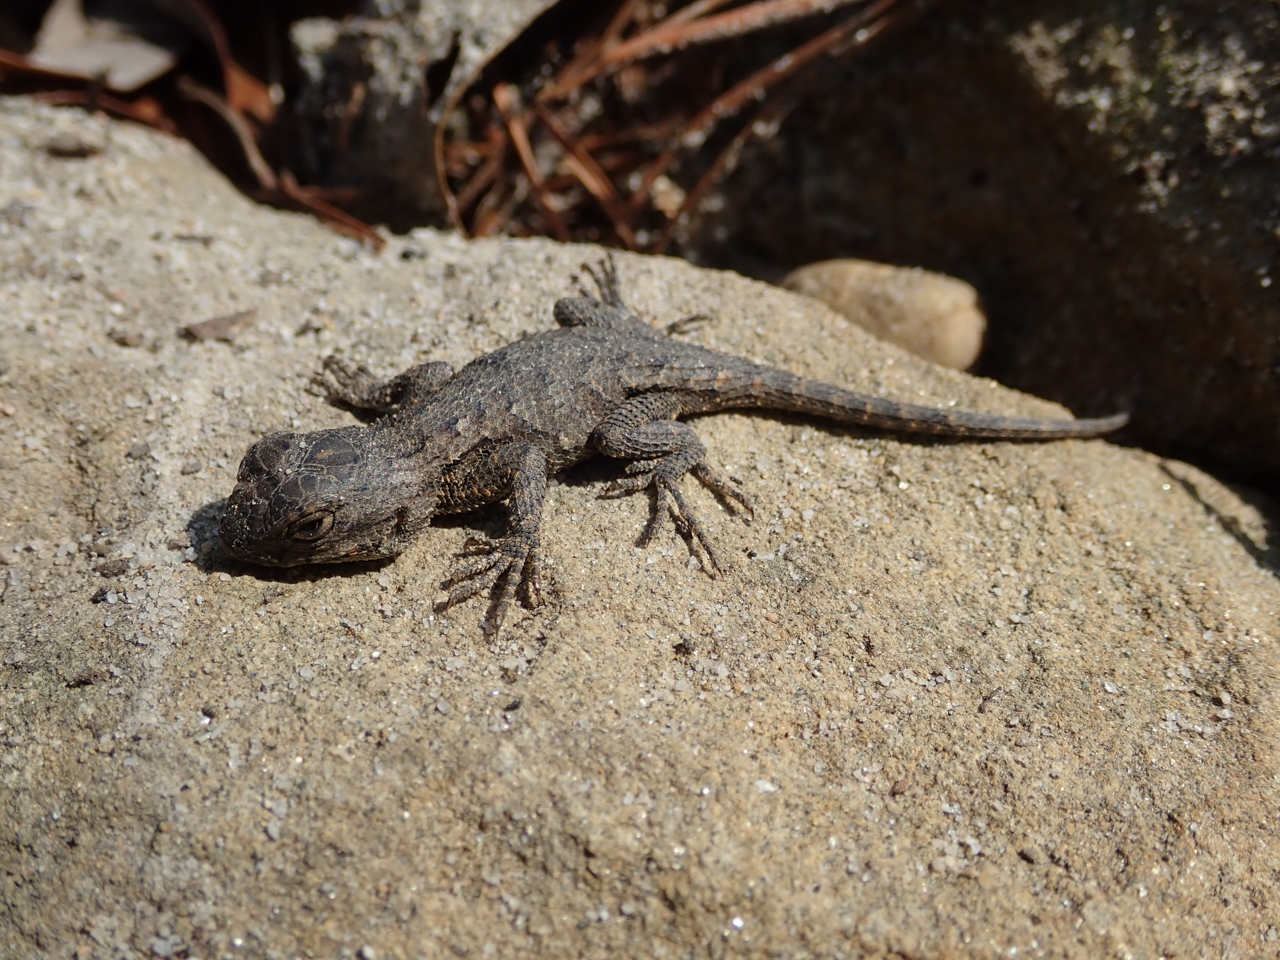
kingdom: Animalia
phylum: Chordata
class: Squamata
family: Phrynosomatidae
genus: Sceloporus
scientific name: Sceloporus undulatus
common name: Eastern fence lizard
